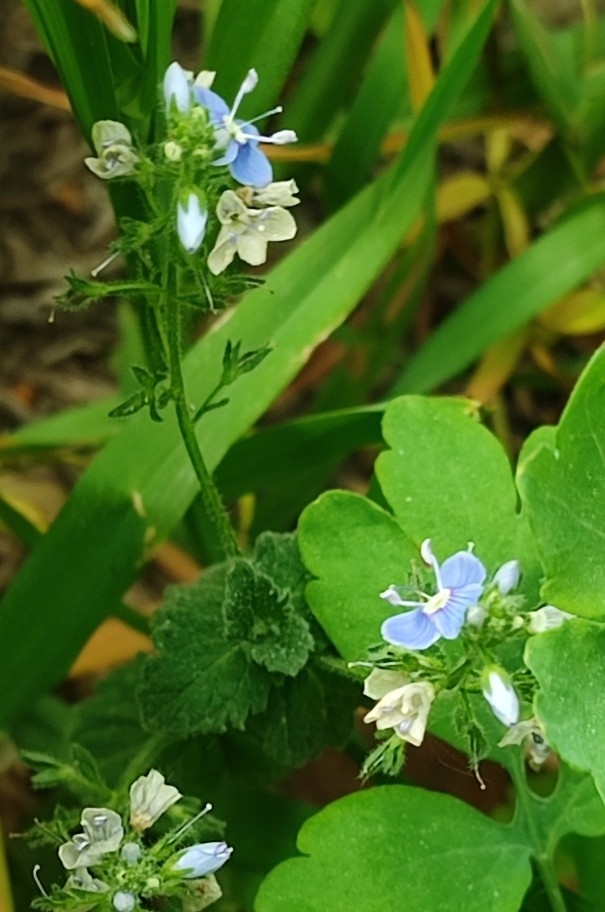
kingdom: Plantae
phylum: Tracheophyta
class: Magnoliopsida
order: Lamiales
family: Plantaginaceae
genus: Veronica
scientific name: Veronica chamaedrys
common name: Germander speedwell
